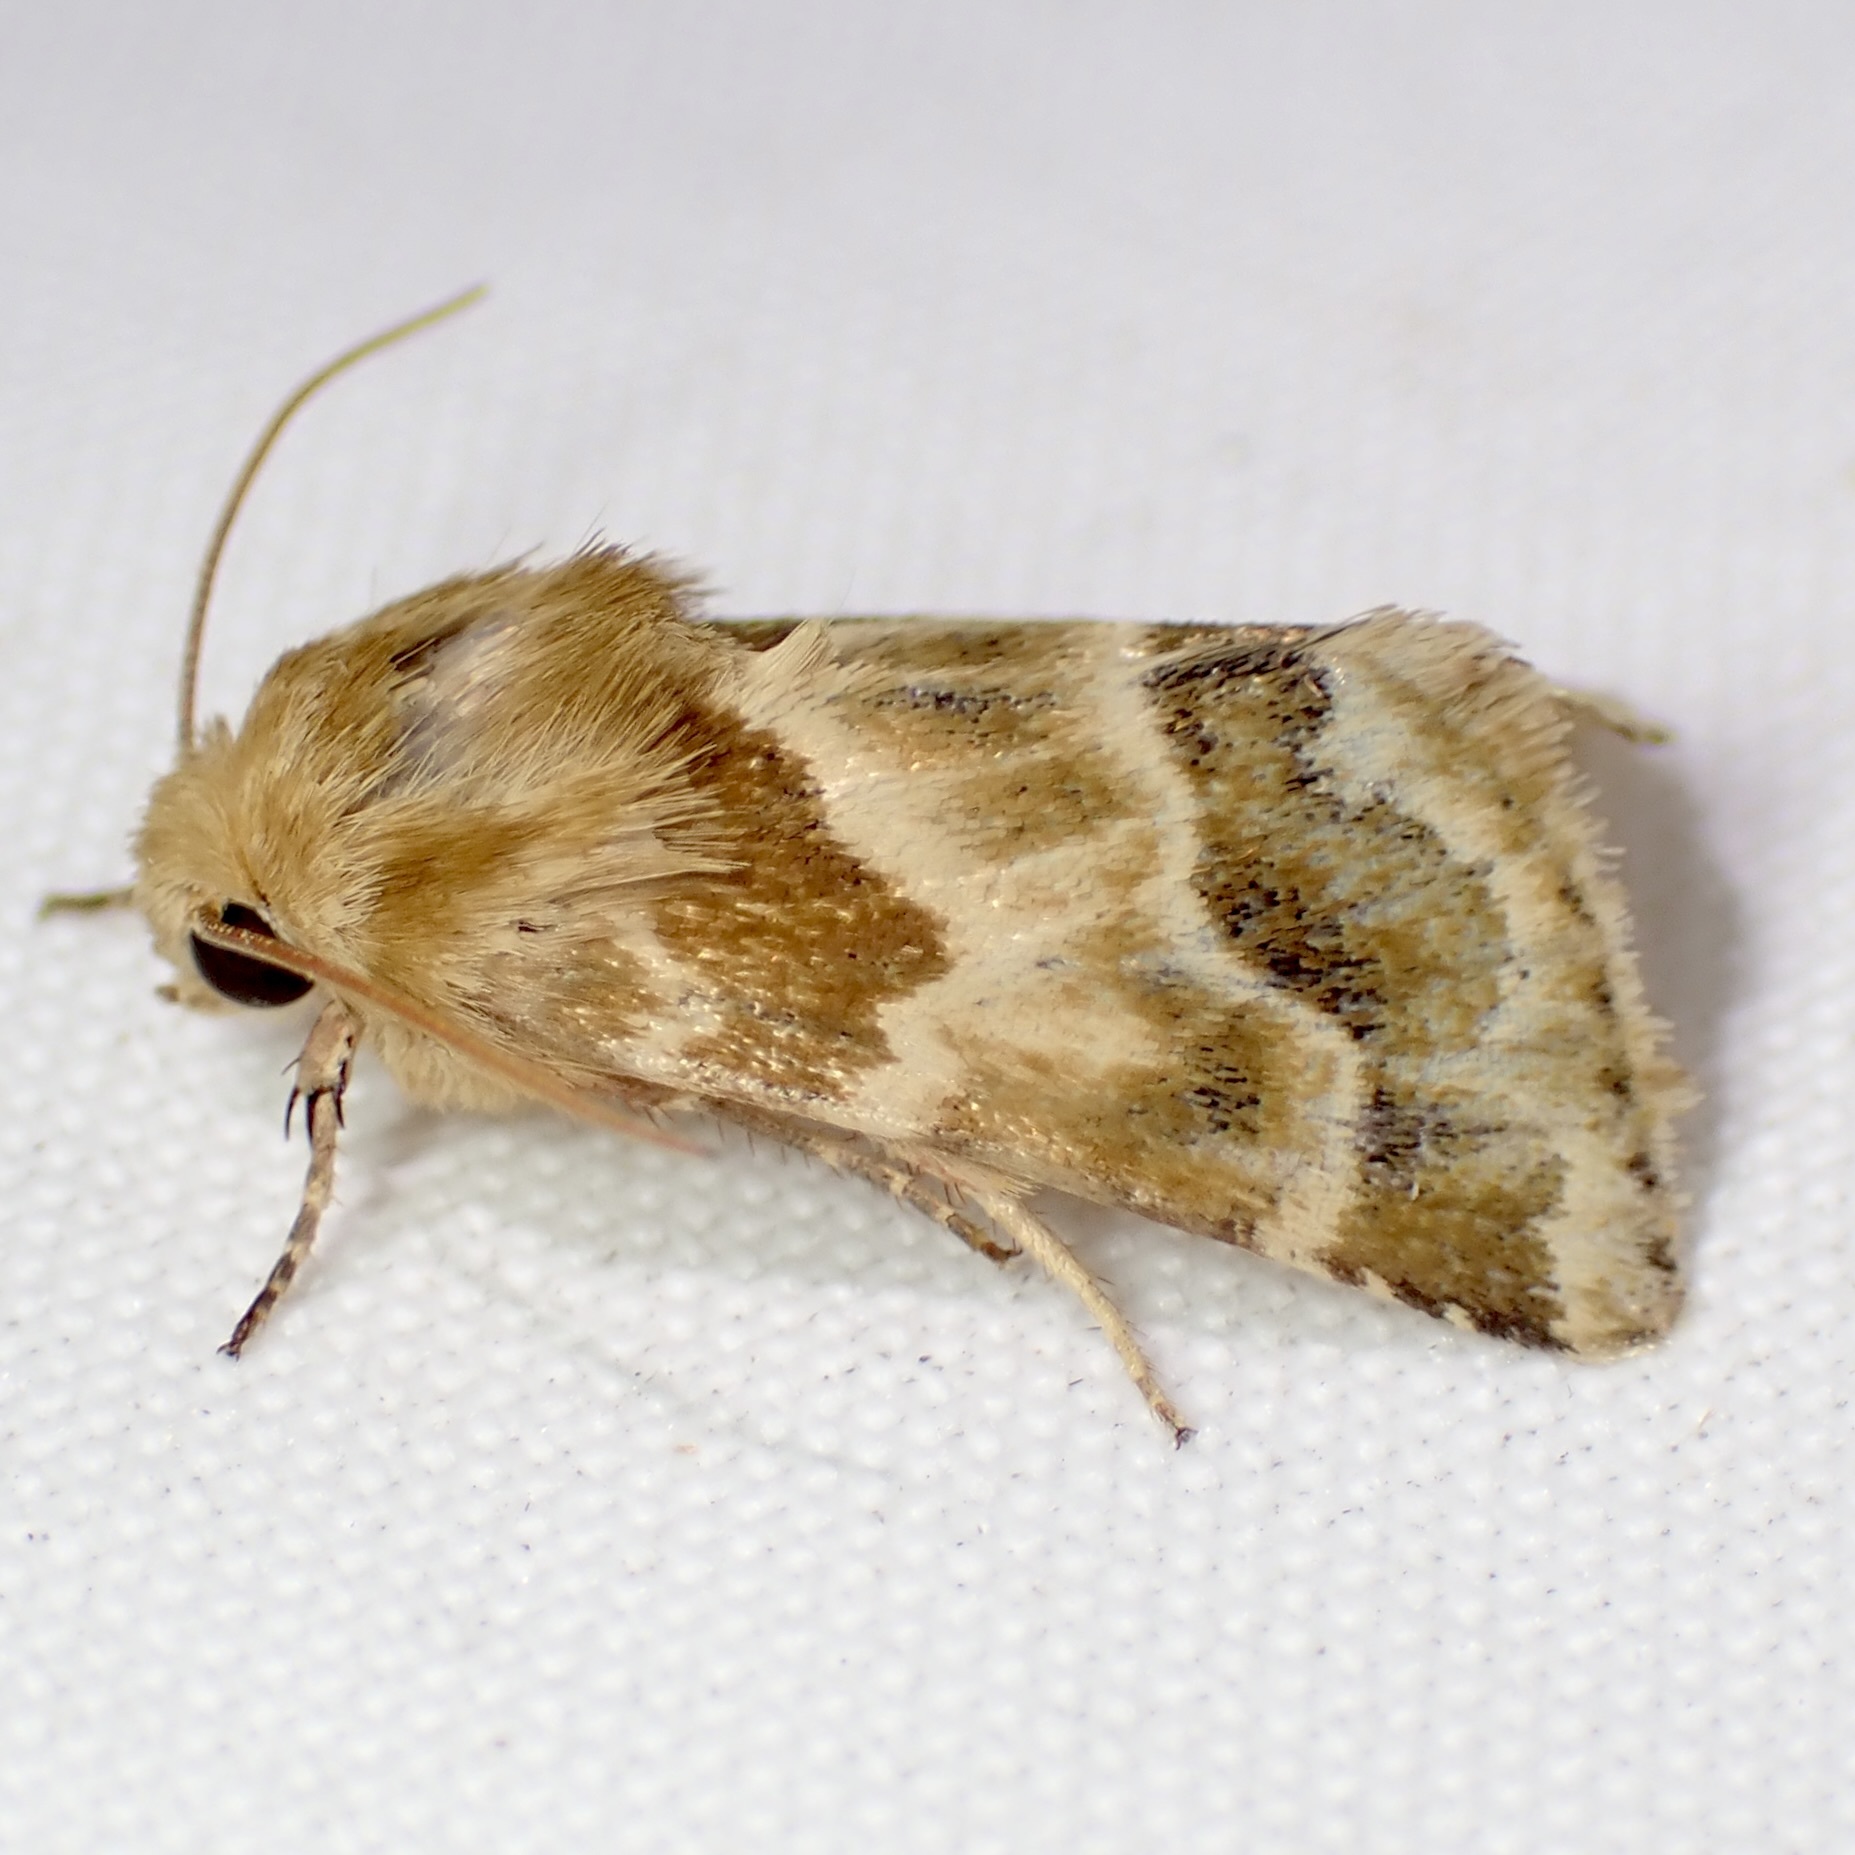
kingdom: Animalia
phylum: Arthropoda
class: Insecta
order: Lepidoptera
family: Noctuidae
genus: Schinia
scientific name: Schinia errans
